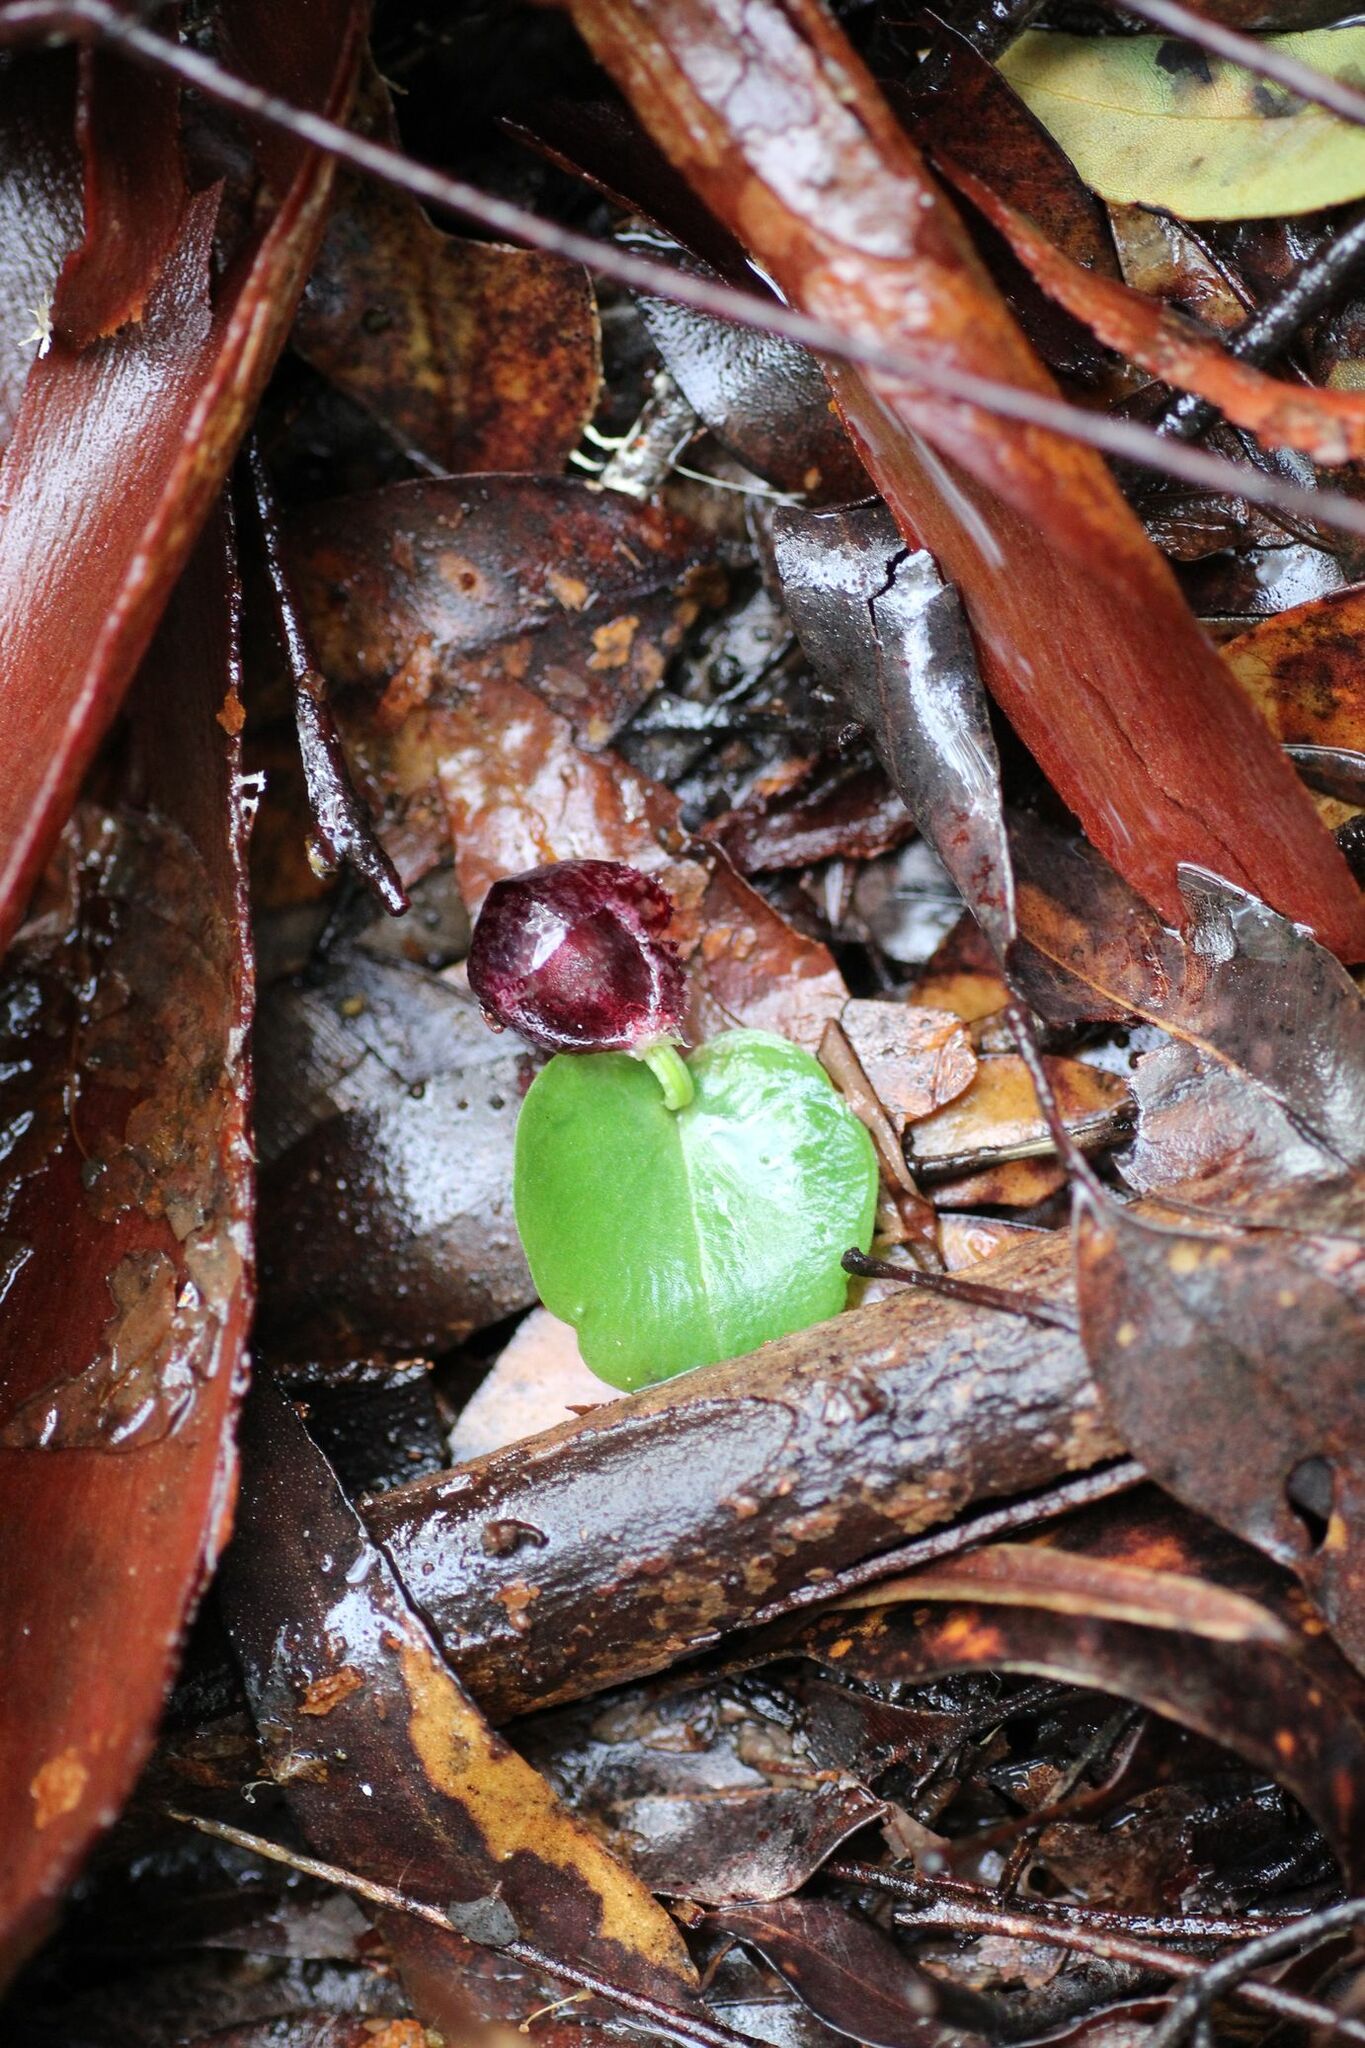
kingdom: Plantae
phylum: Tracheophyta
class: Liliopsida
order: Asparagales
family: Orchidaceae
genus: Corybas
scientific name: Corybas recurvus
